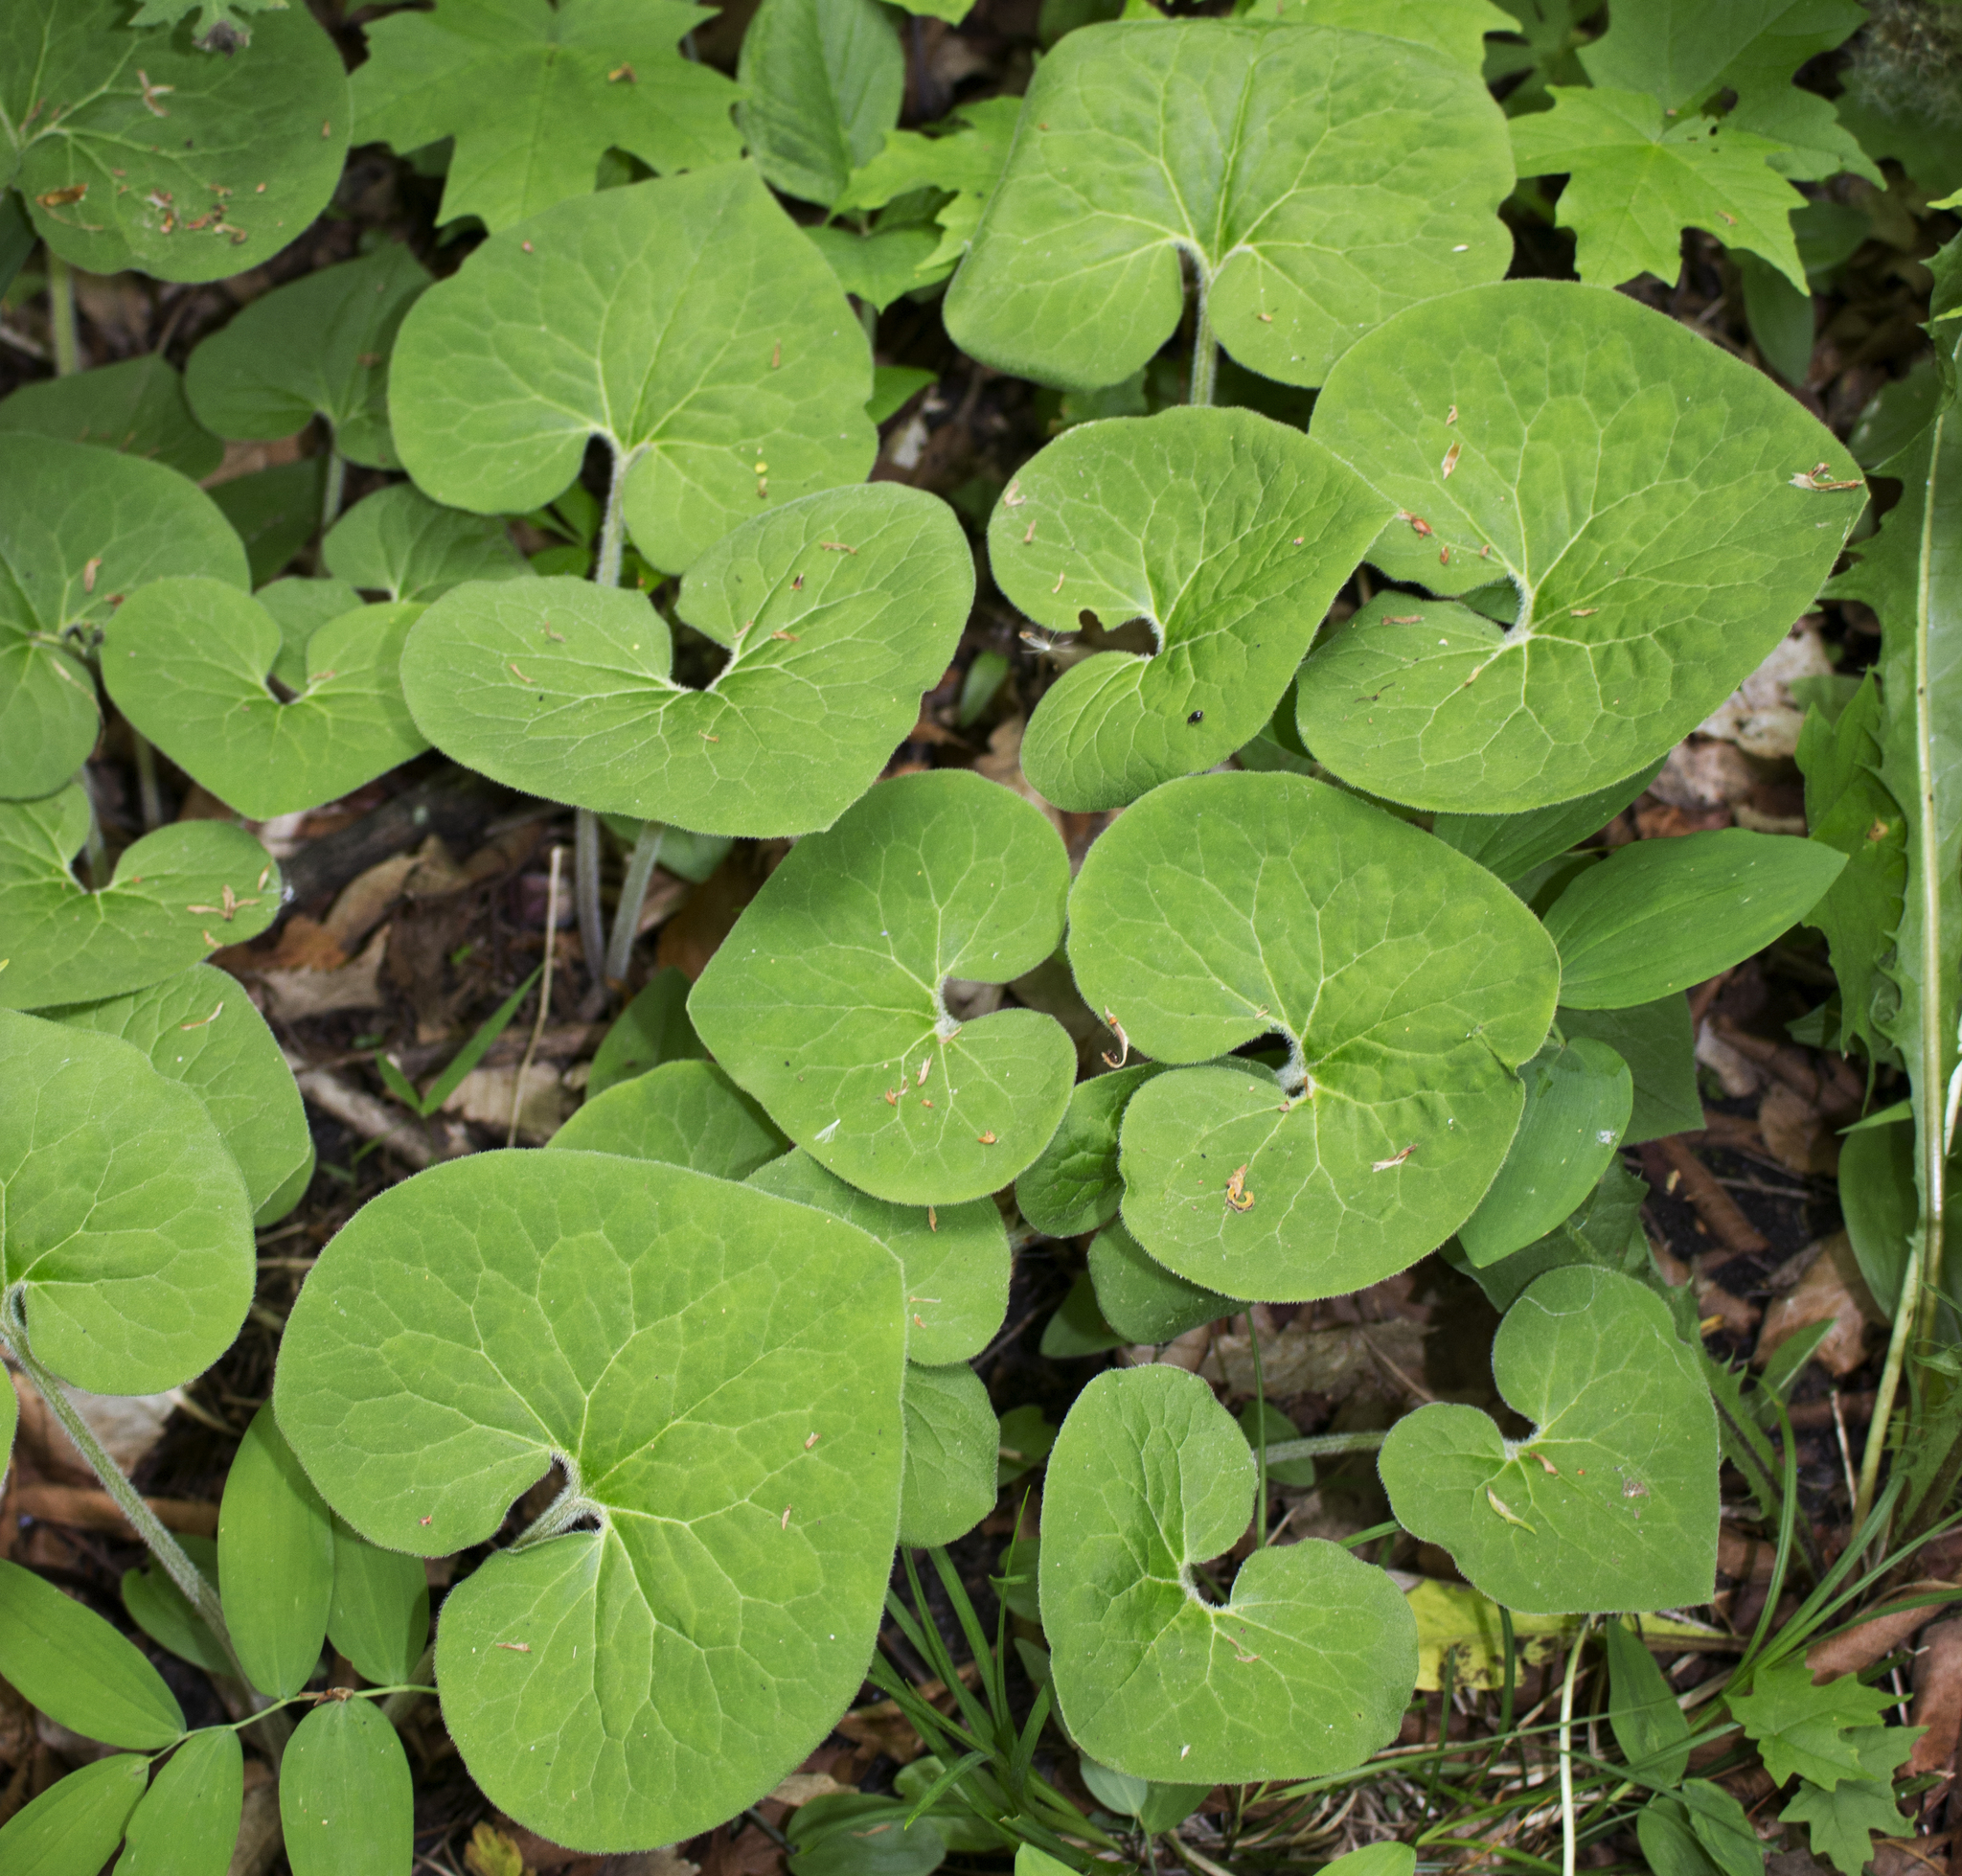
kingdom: Plantae
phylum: Tracheophyta
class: Magnoliopsida
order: Piperales
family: Aristolochiaceae
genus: Asarum
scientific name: Asarum canadense
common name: Wild ginger
